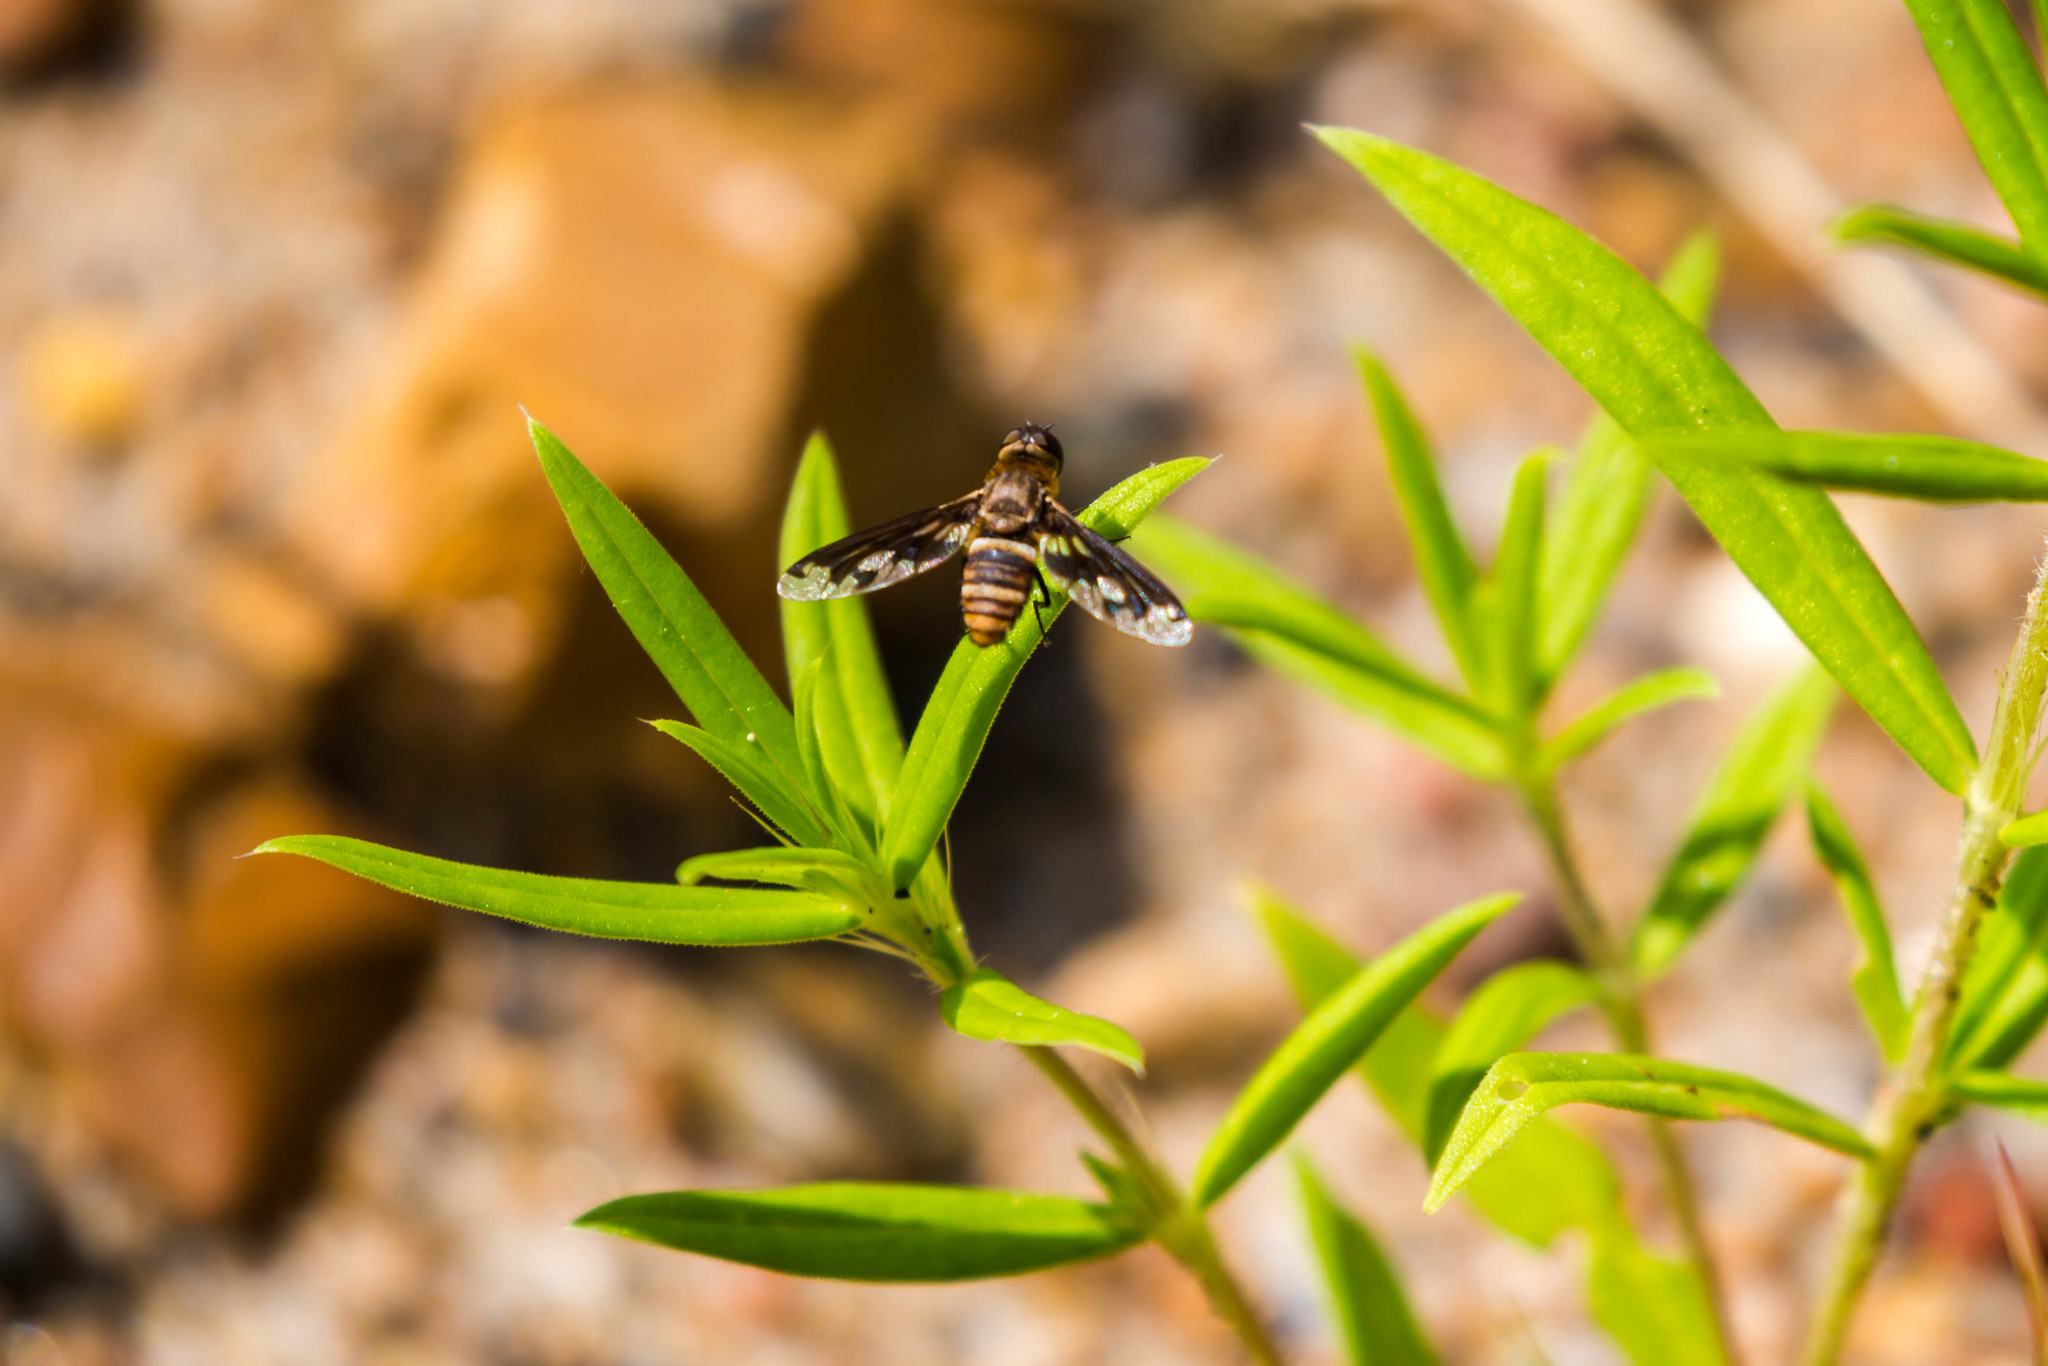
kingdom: Animalia
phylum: Arthropoda
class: Insecta
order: Diptera
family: Bombyliidae
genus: Exoprosopa
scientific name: Exoprosopa fascipennis
